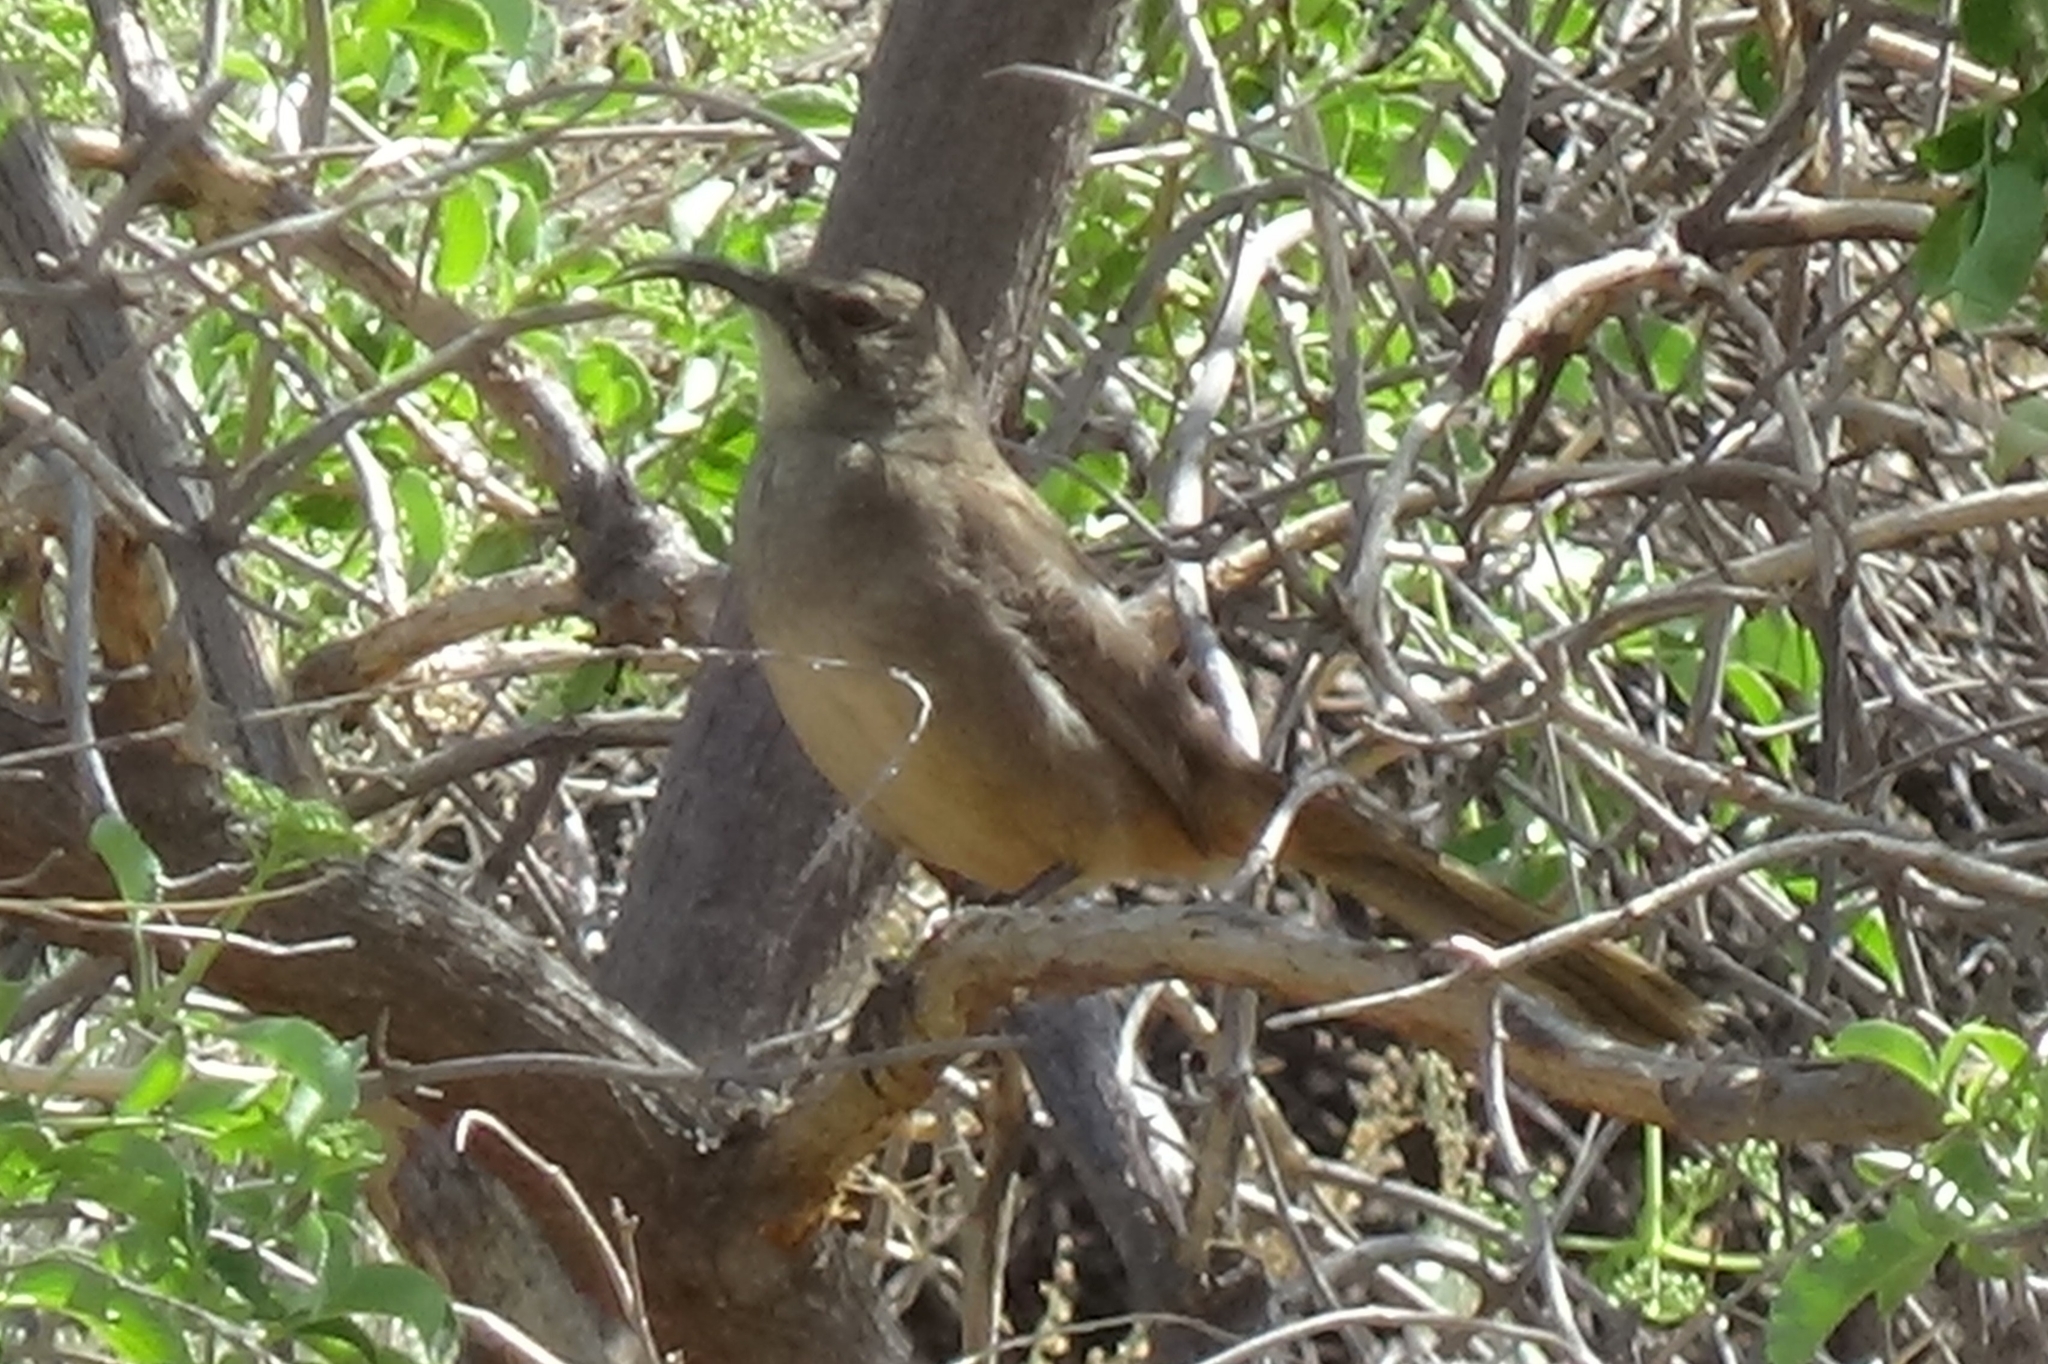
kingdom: Animalia
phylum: Chordata
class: Aves
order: Passeriformes
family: Mimidae
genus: Toxostoma
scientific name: Toxostoma redivivum
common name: California thrasher
